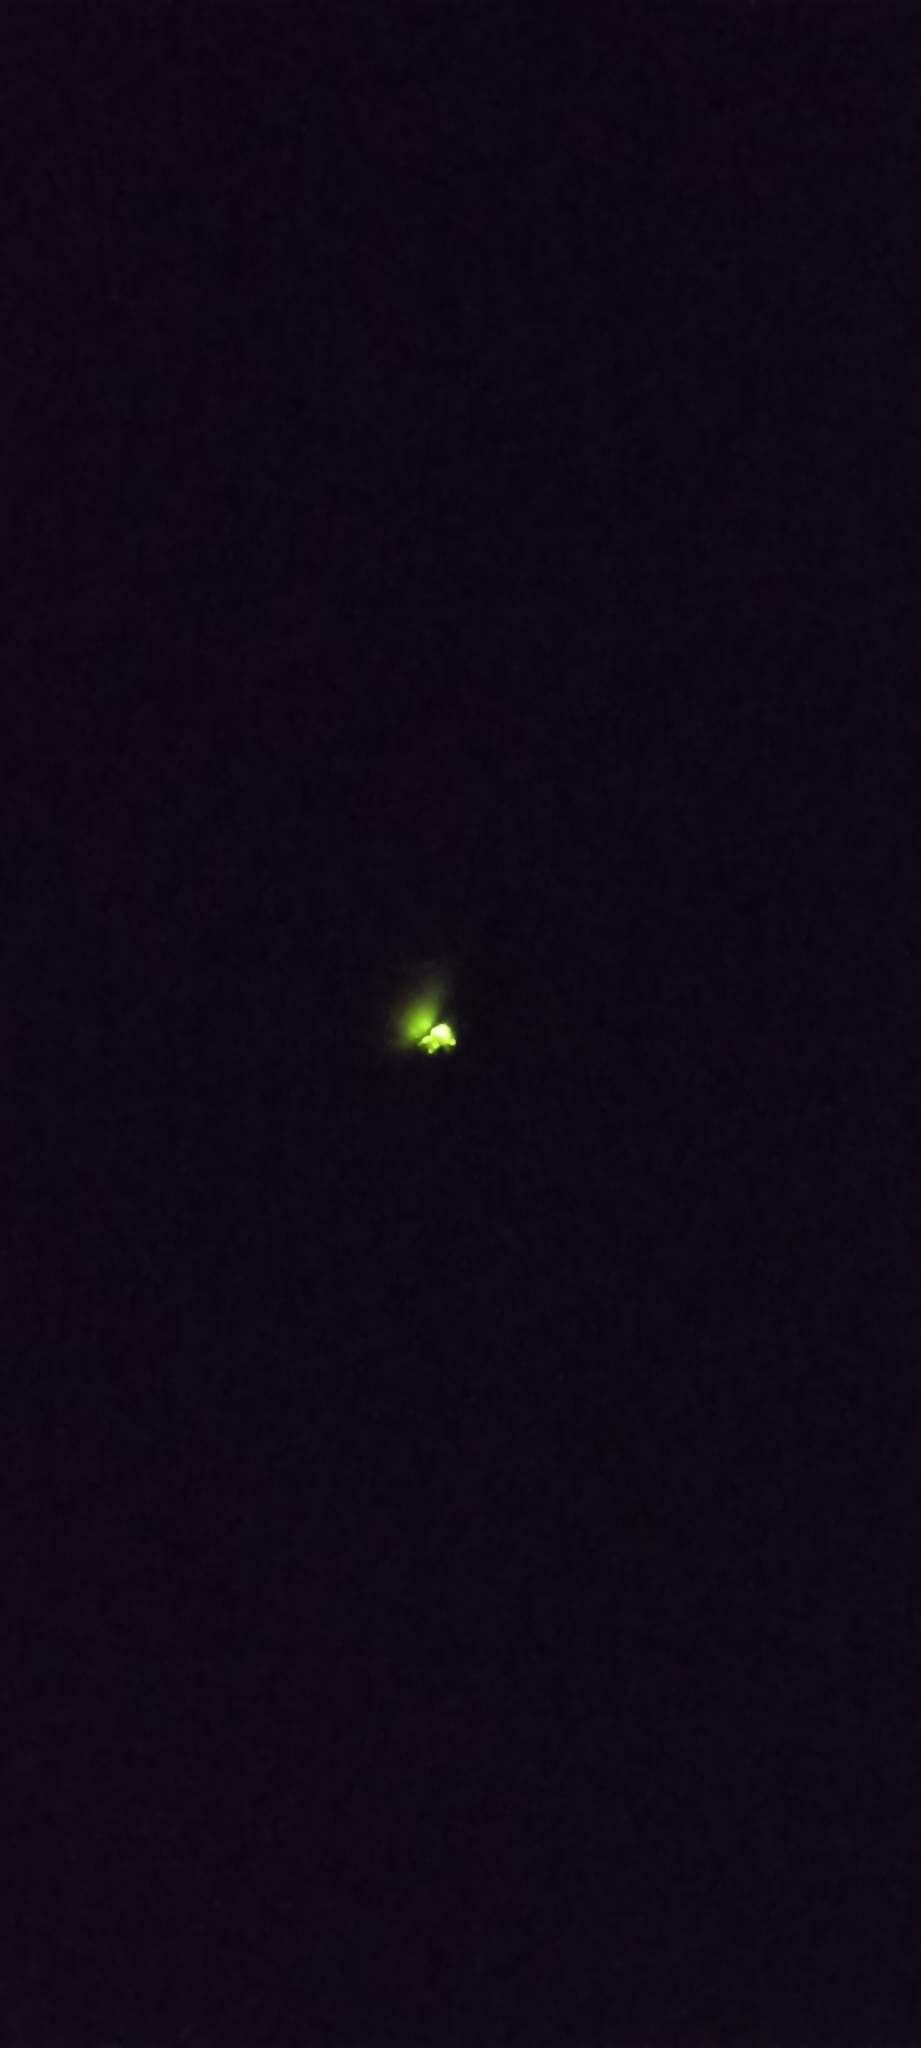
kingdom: Animalia
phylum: Arthropoda
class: Insecta
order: Coleoptera
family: Lampyridae
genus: Lampyris
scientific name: Lampyris noctiluca
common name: Glow-worm
